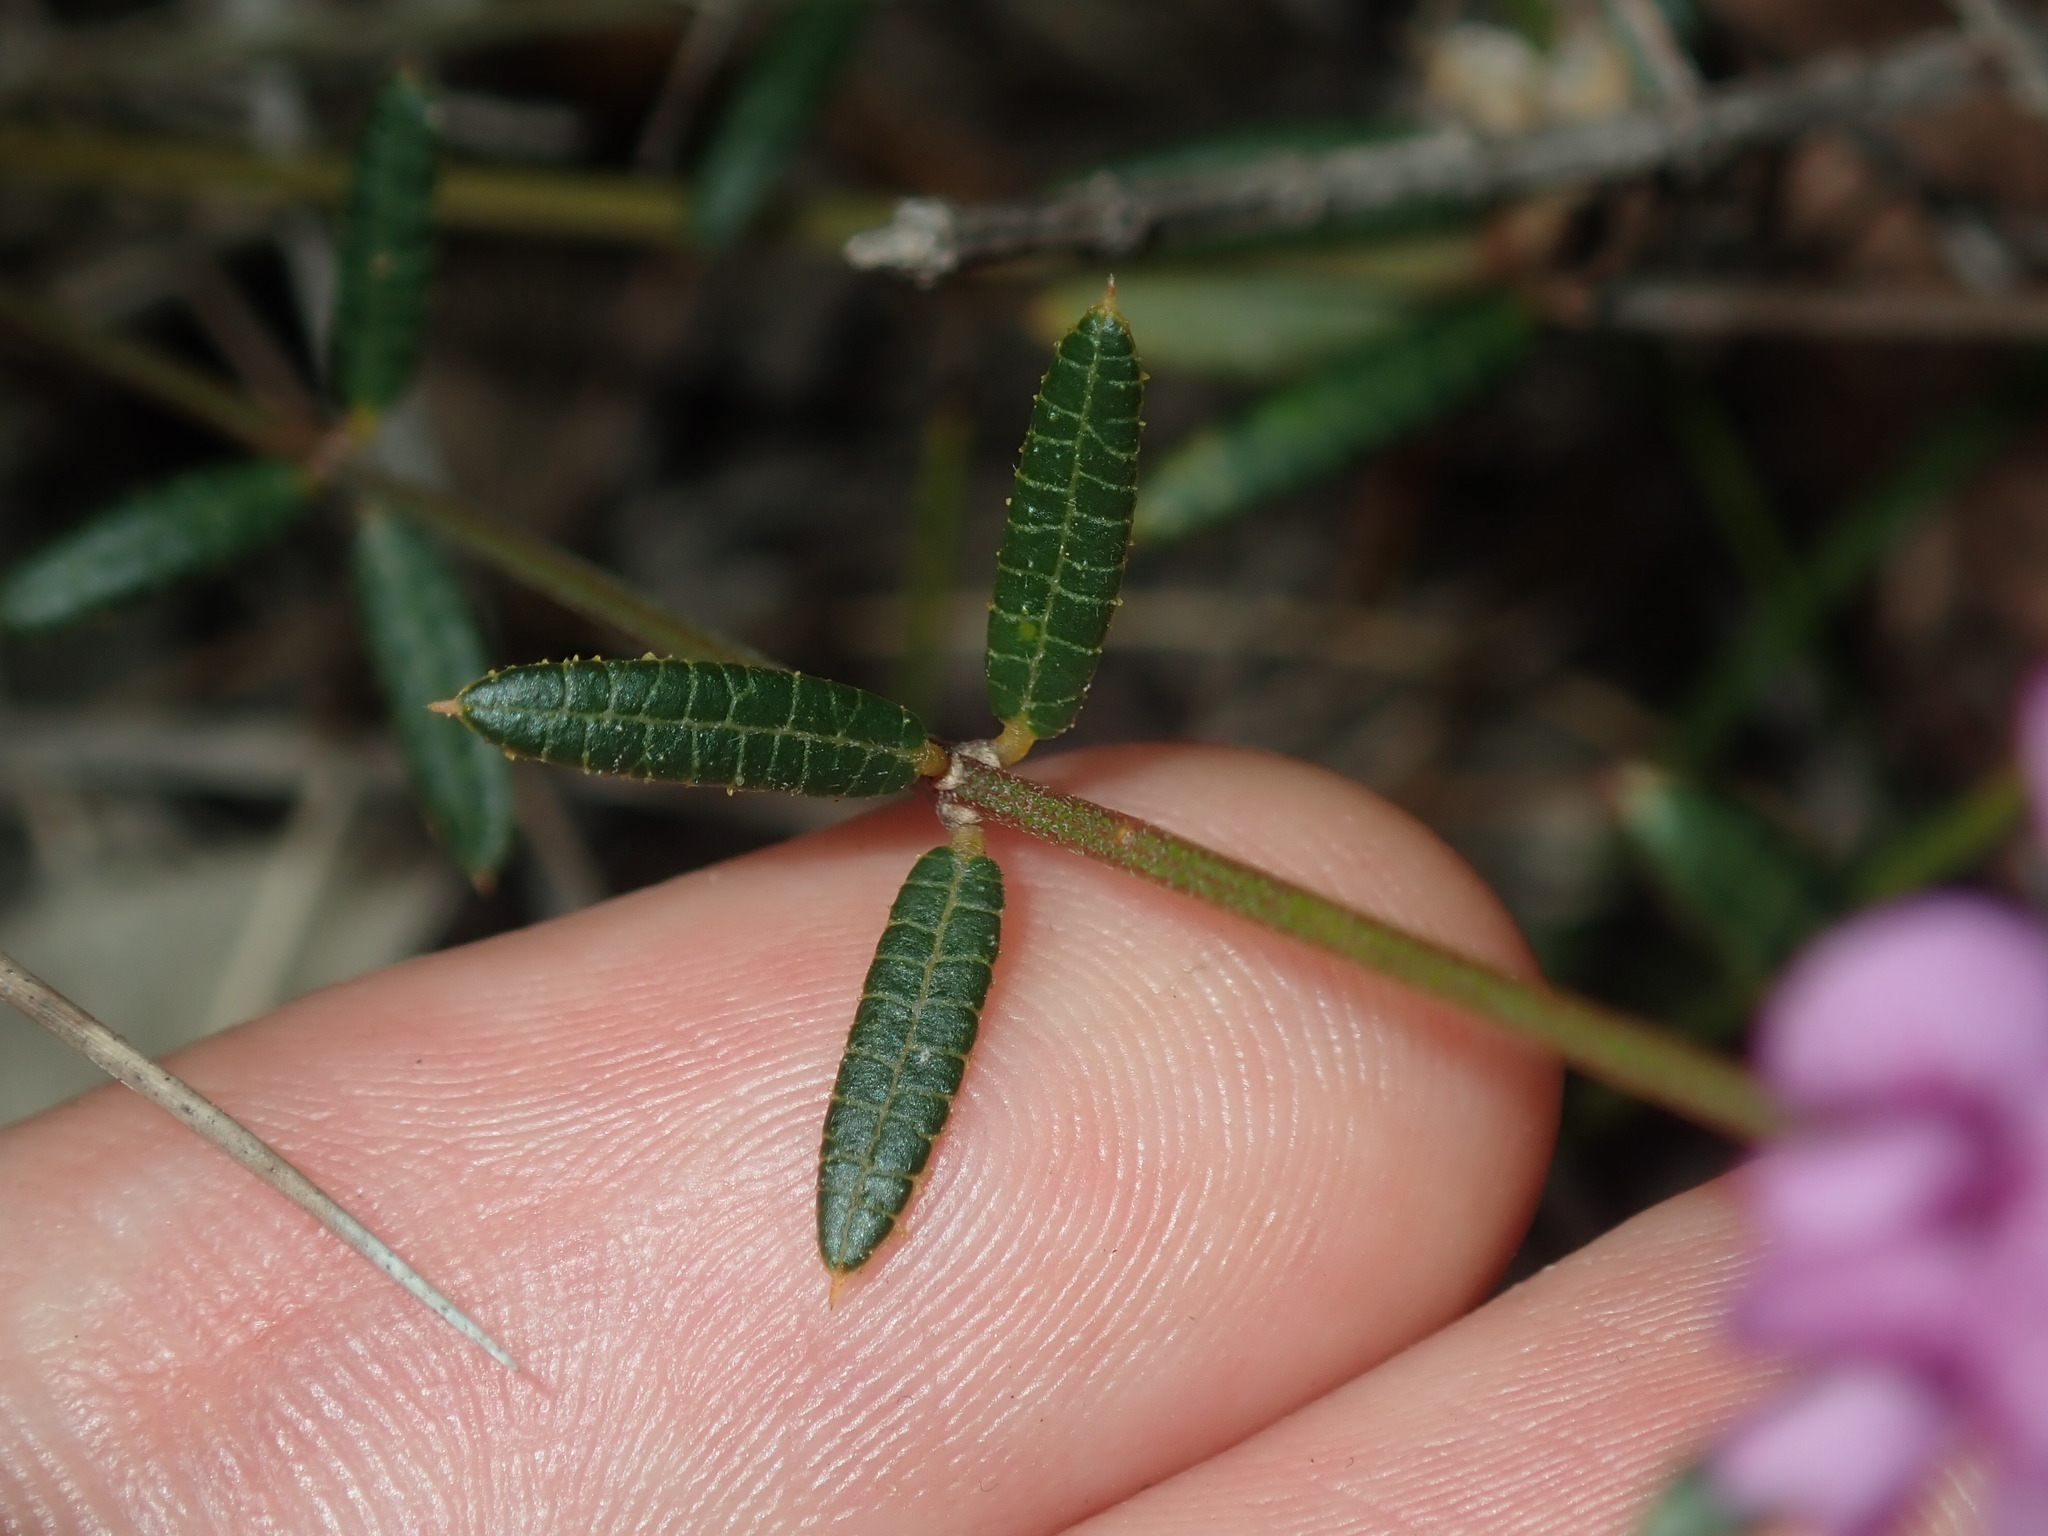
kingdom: Plantae
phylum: Tracheophyta
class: Magnoliopsida
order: Fabales
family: Fabaceae
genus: Mirbelia
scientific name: Mirbelia rubiifolia
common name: Heathy mirbelia
